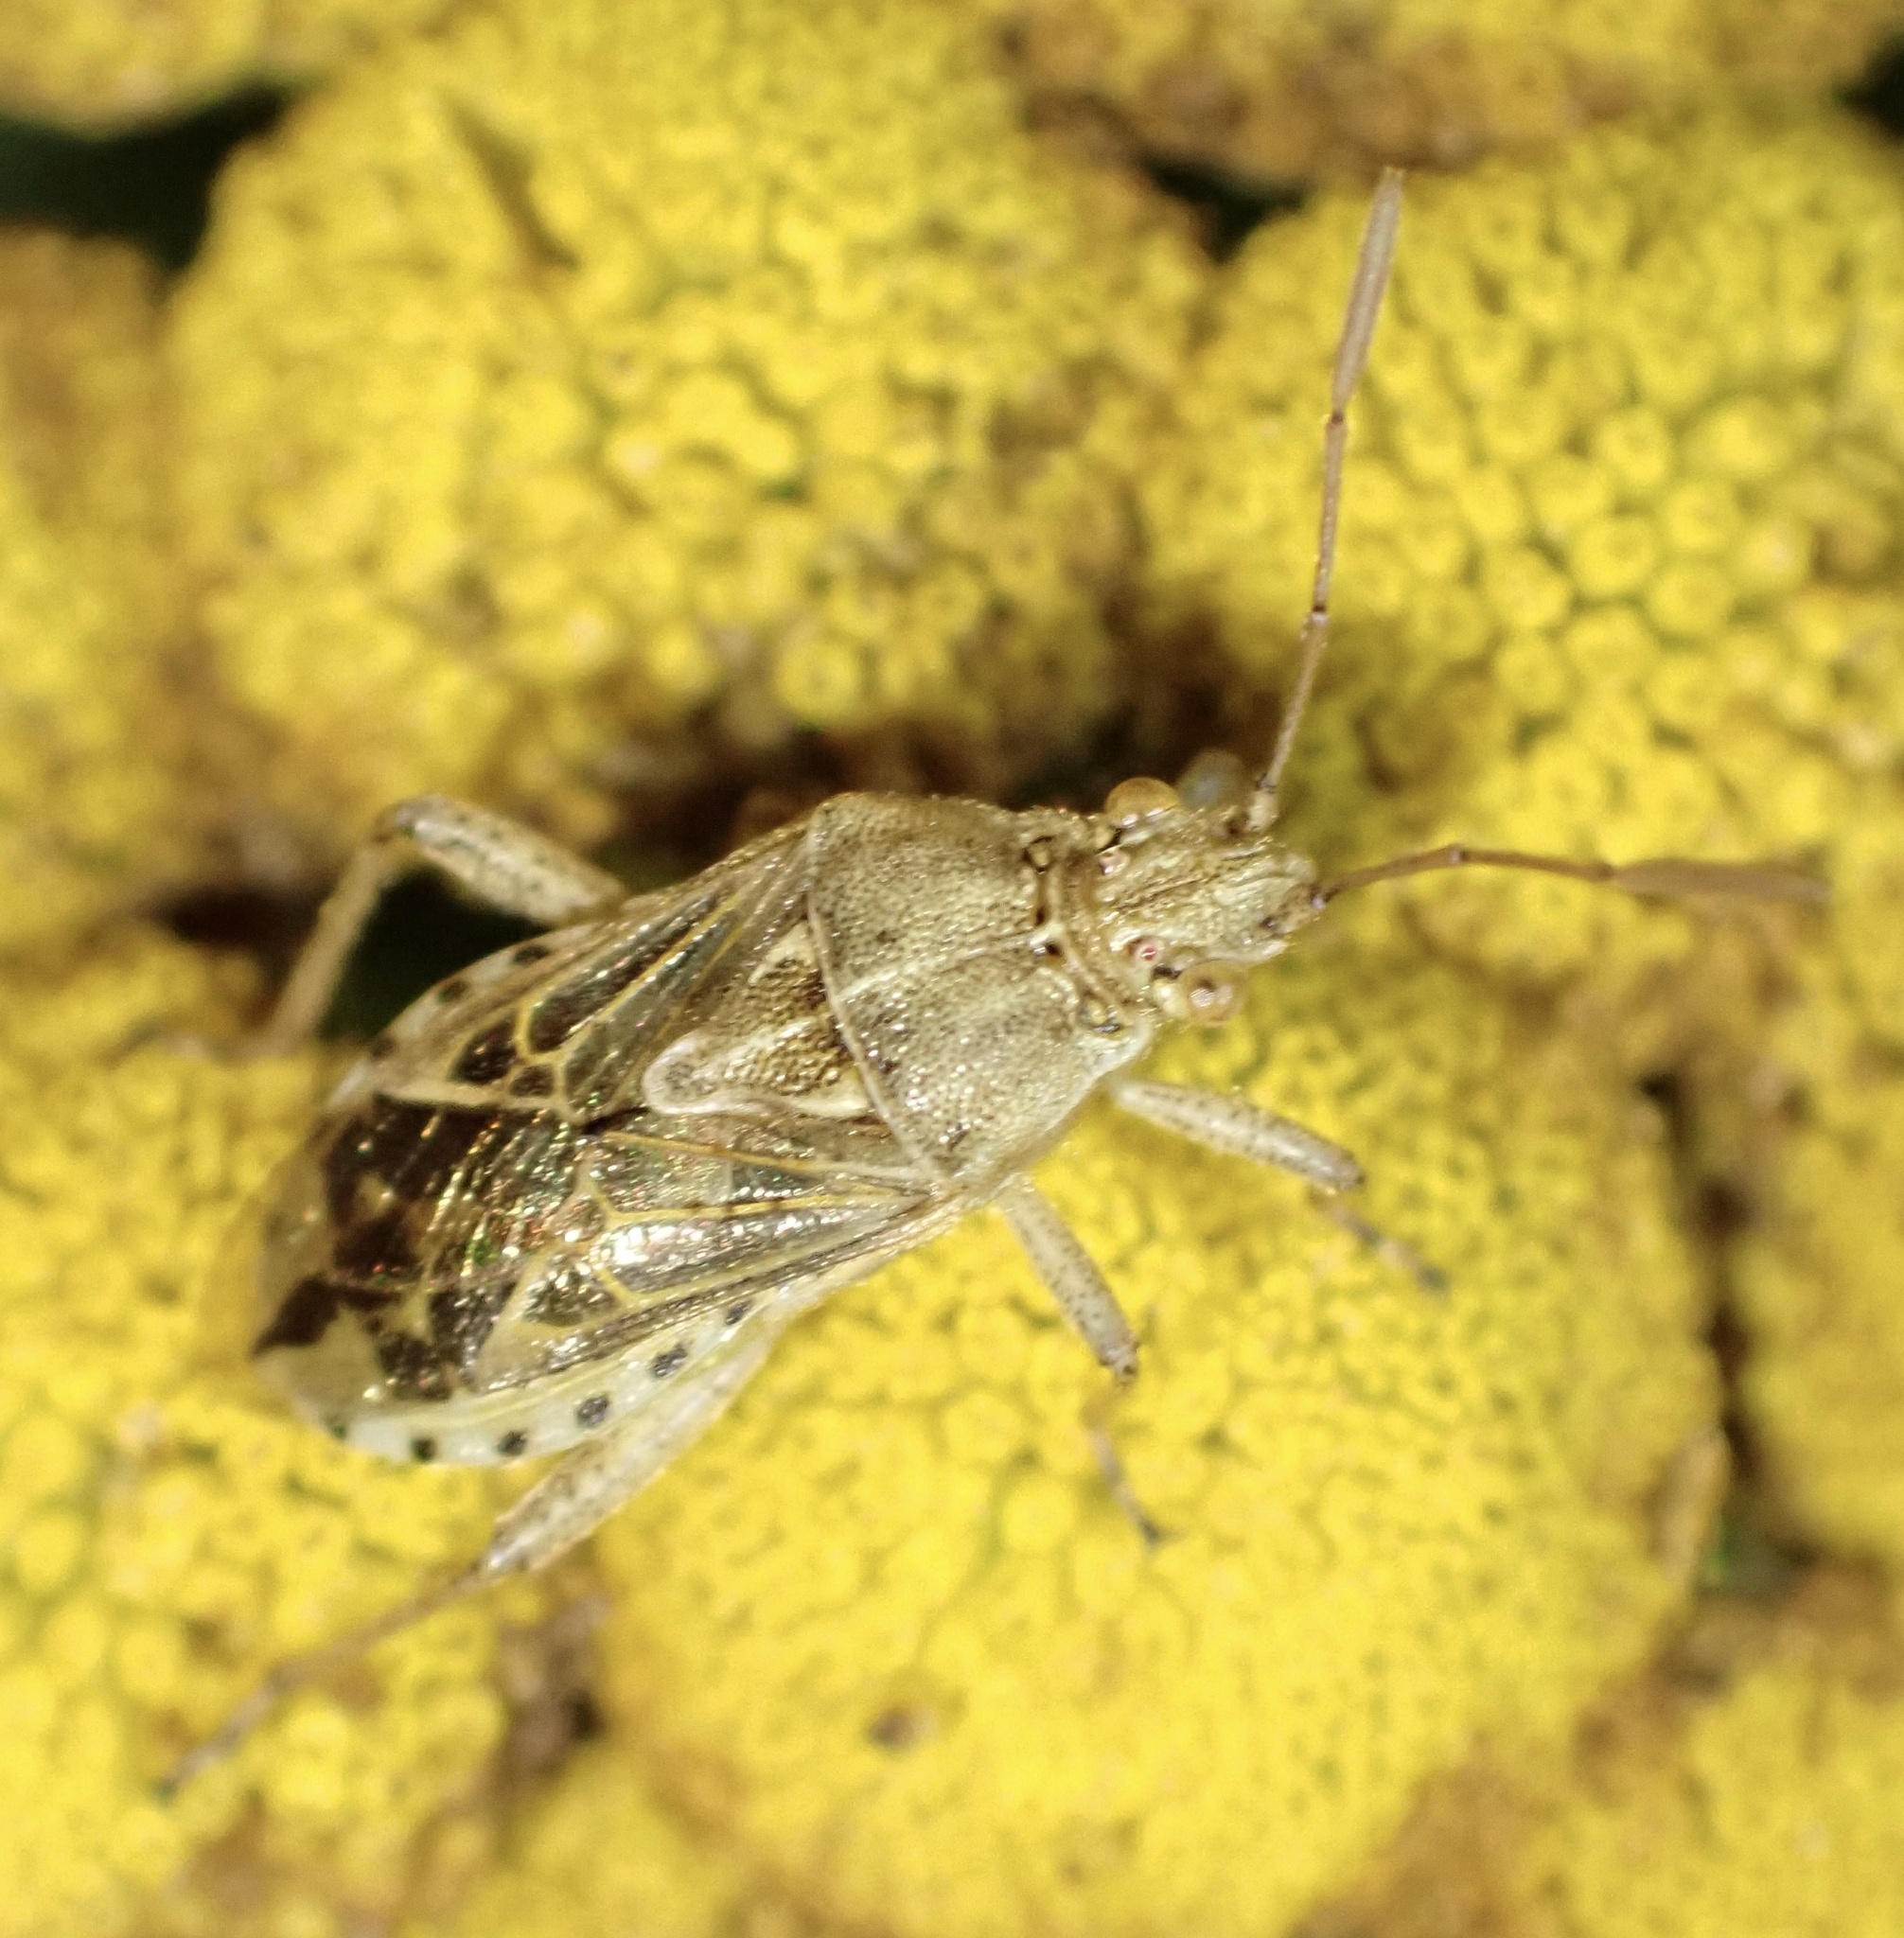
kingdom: Animalia
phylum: Arthropoda
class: Insecta
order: Hemiptera
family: Rhopalidae
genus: Stictopleurus
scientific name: Stictopleurus abutilon
